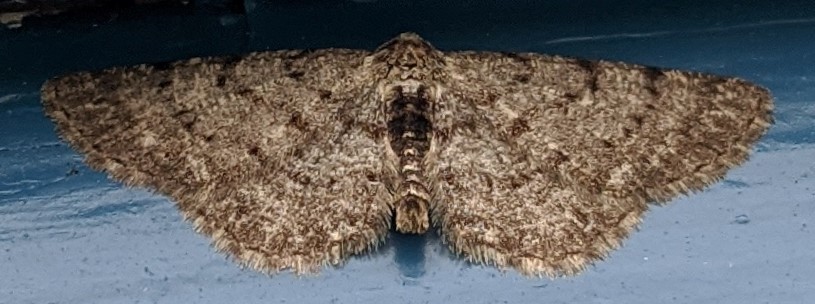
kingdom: Animalia
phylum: Arthropoda
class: Insecta
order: Lepidoptera
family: Geometridae
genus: Aethalura
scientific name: Aethalura intertexta
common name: Four-barred gray
